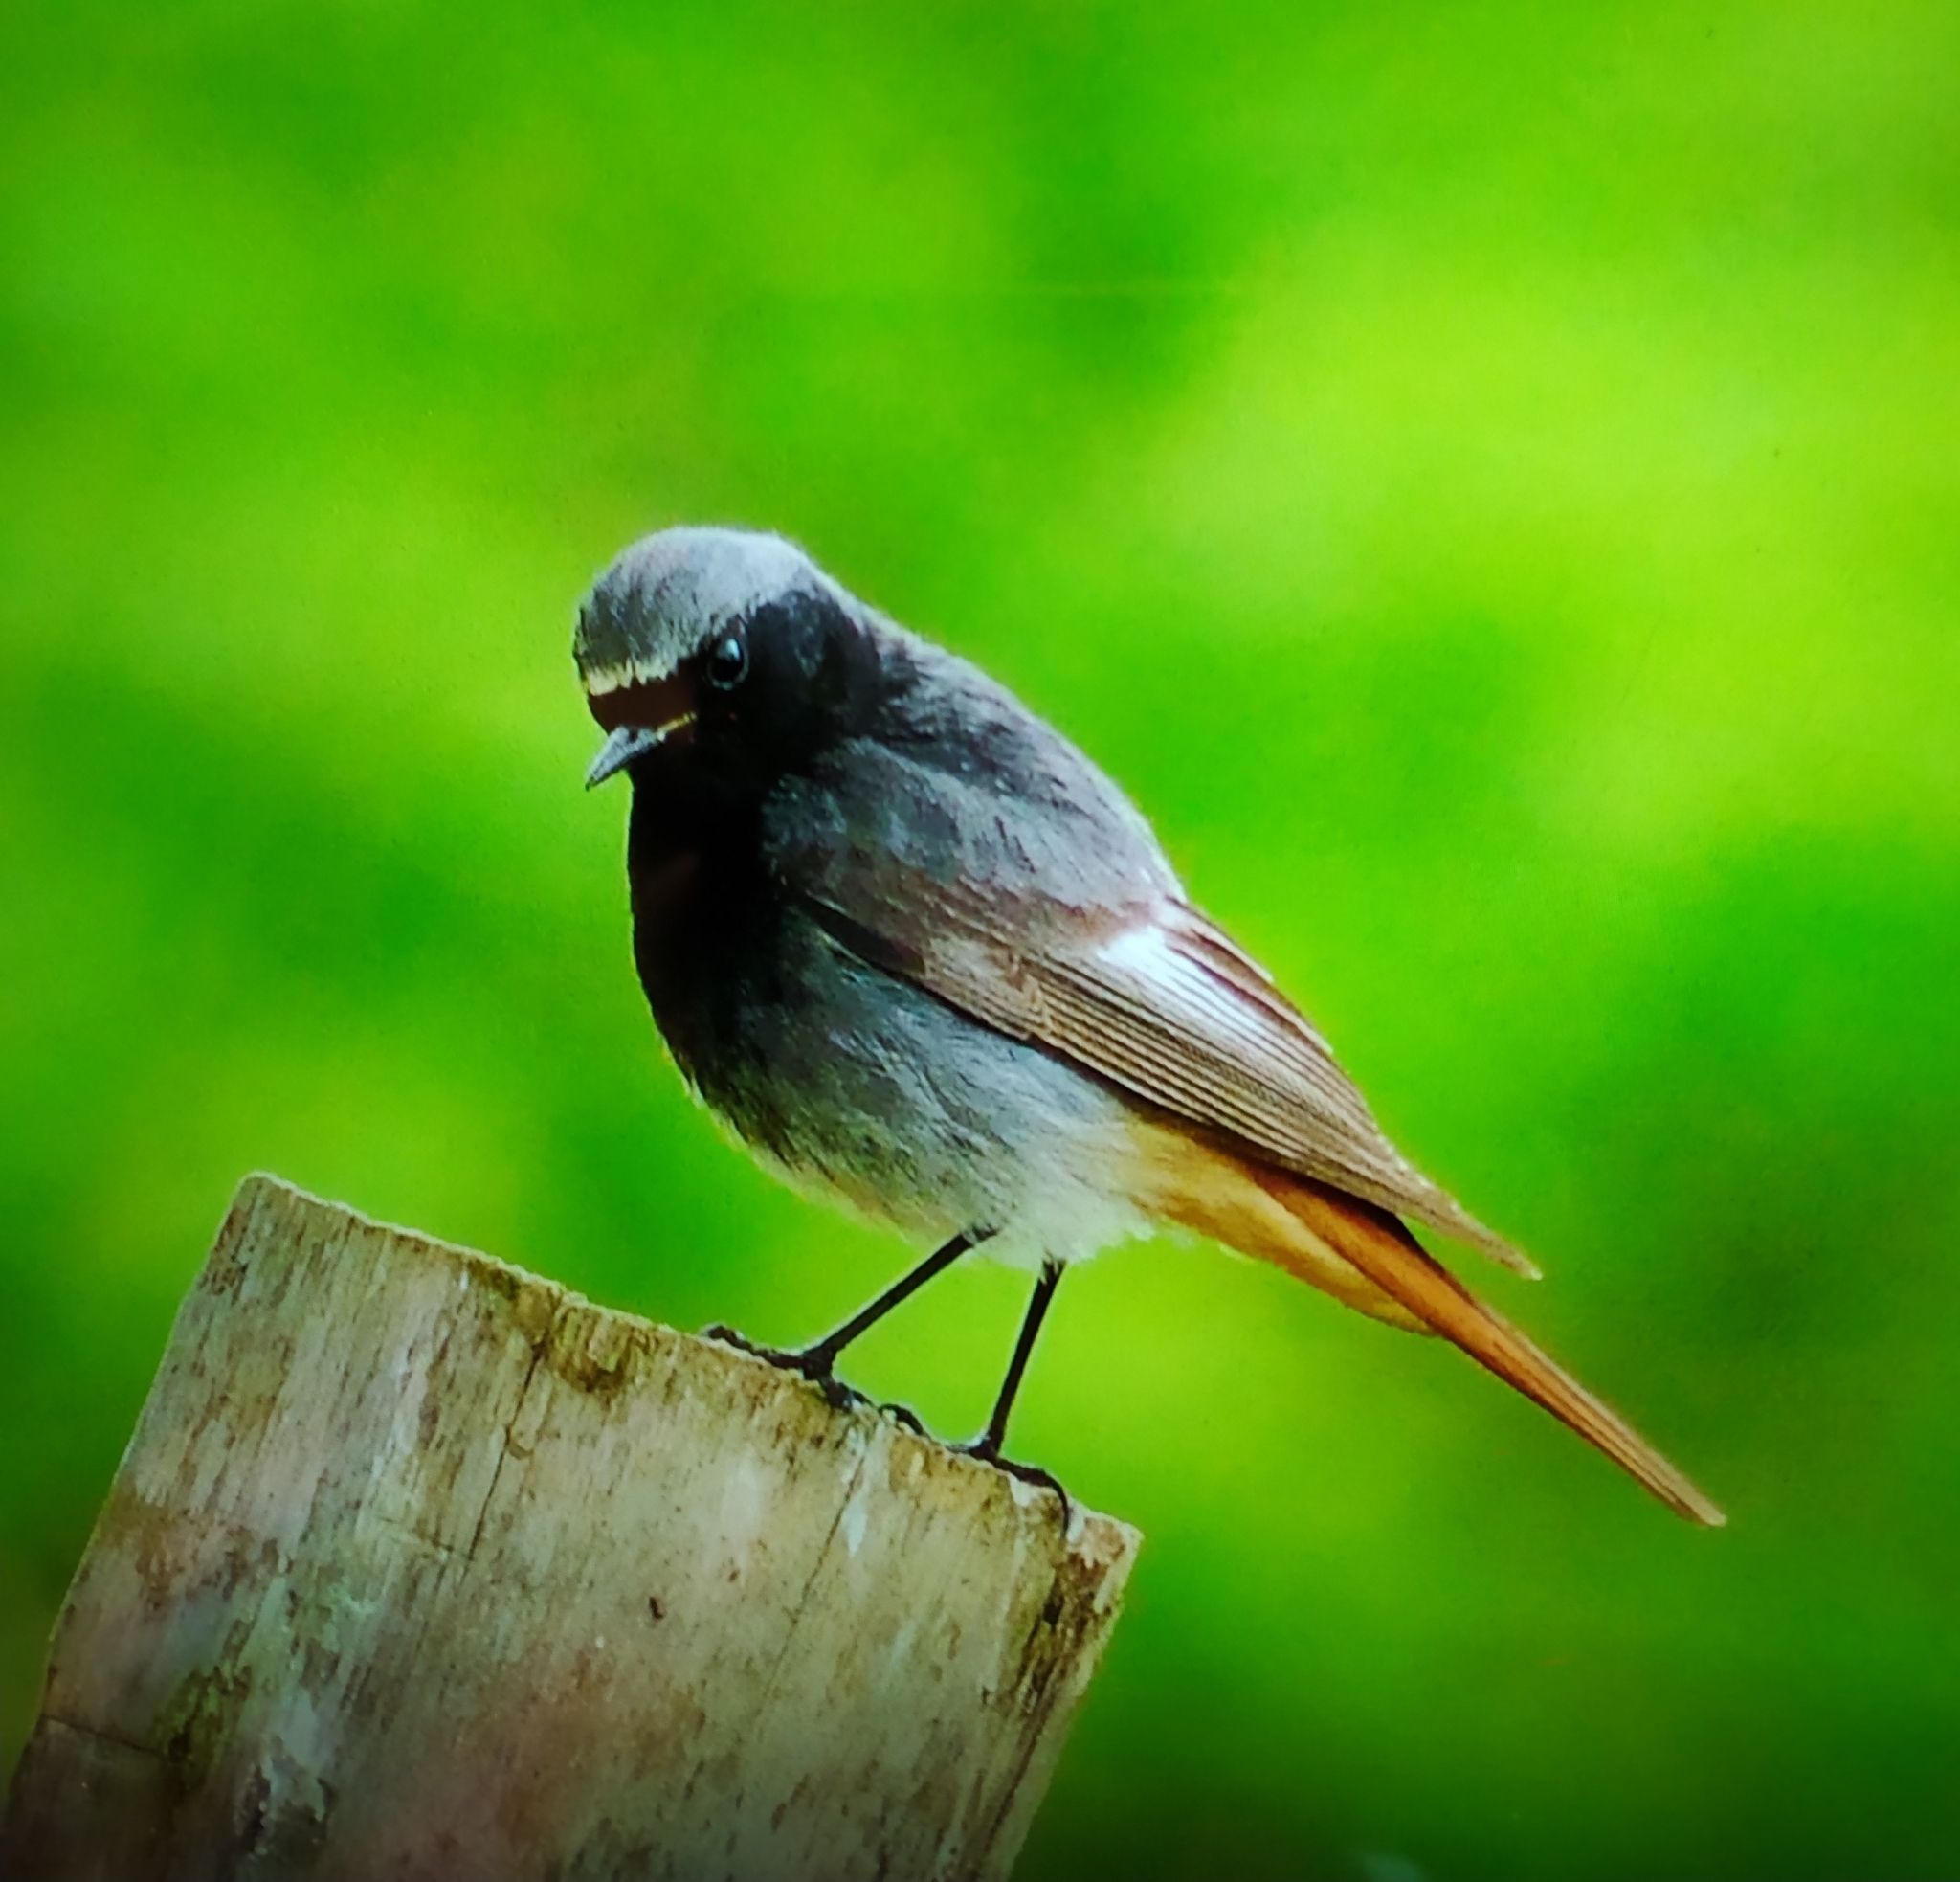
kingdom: Animalia
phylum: Chordata
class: Aves
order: Passeriformes
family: Muscicapidae
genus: Phoenicurus
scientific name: Phoenicurus ochruros
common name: Black redstart
